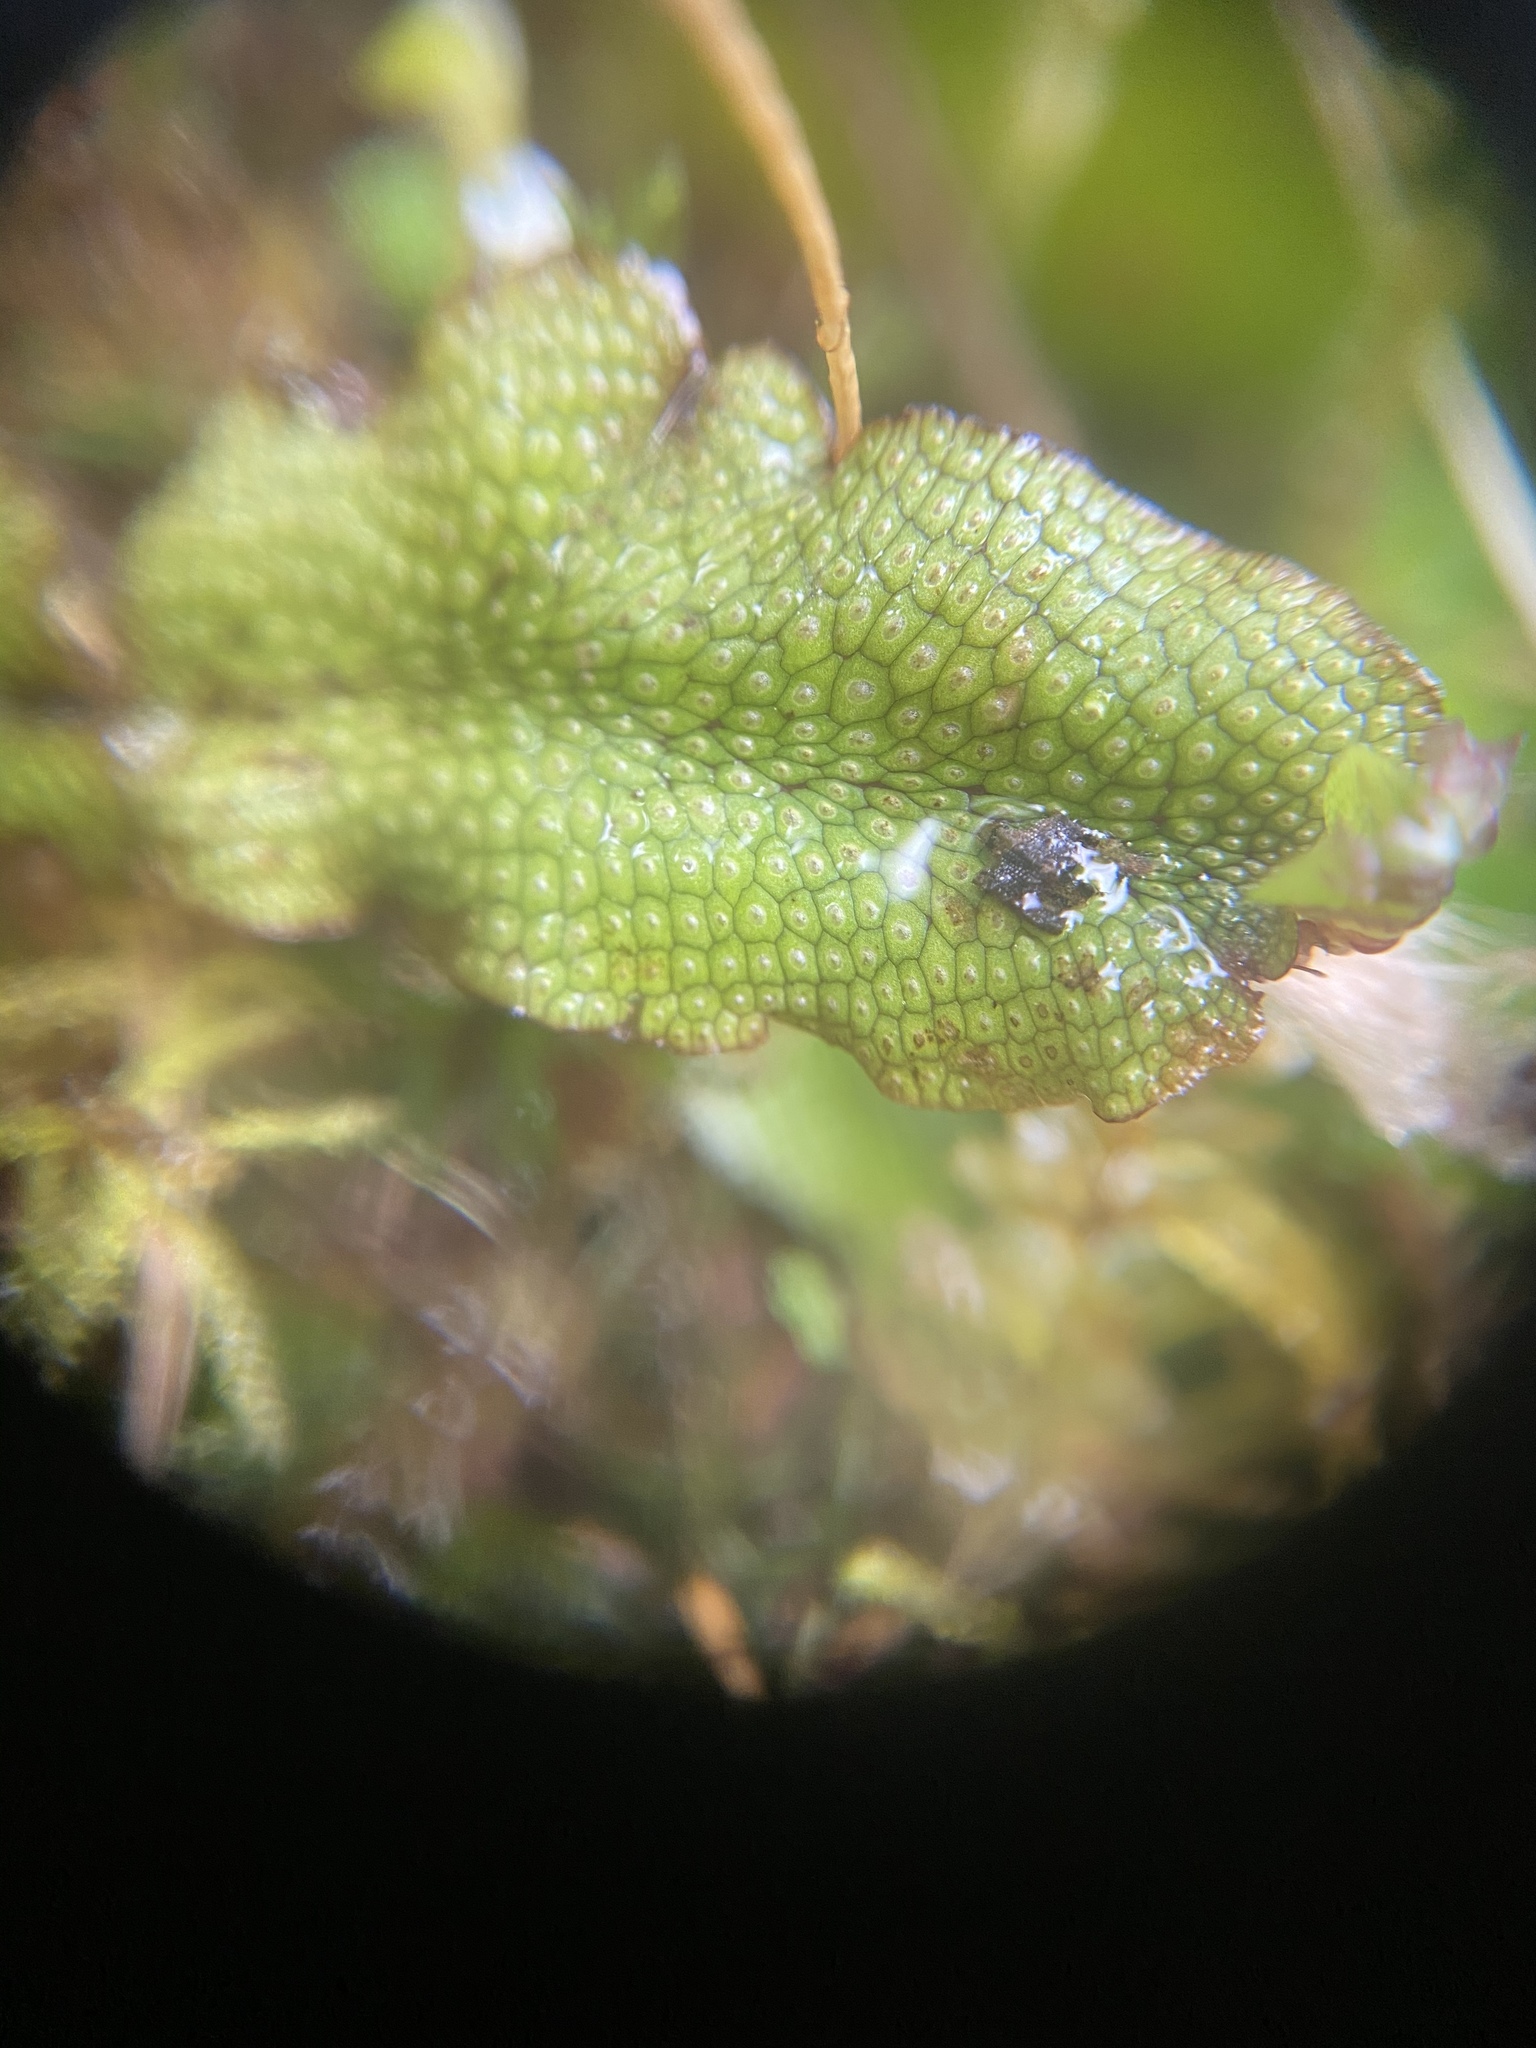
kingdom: Plantae
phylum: Marchantiophyta
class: Marchantiopsida
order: Marchantiales
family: Conocephalaceae
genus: Conocephalum
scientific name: Conocephalum salebrosum
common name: Cat-tongue liverwort
